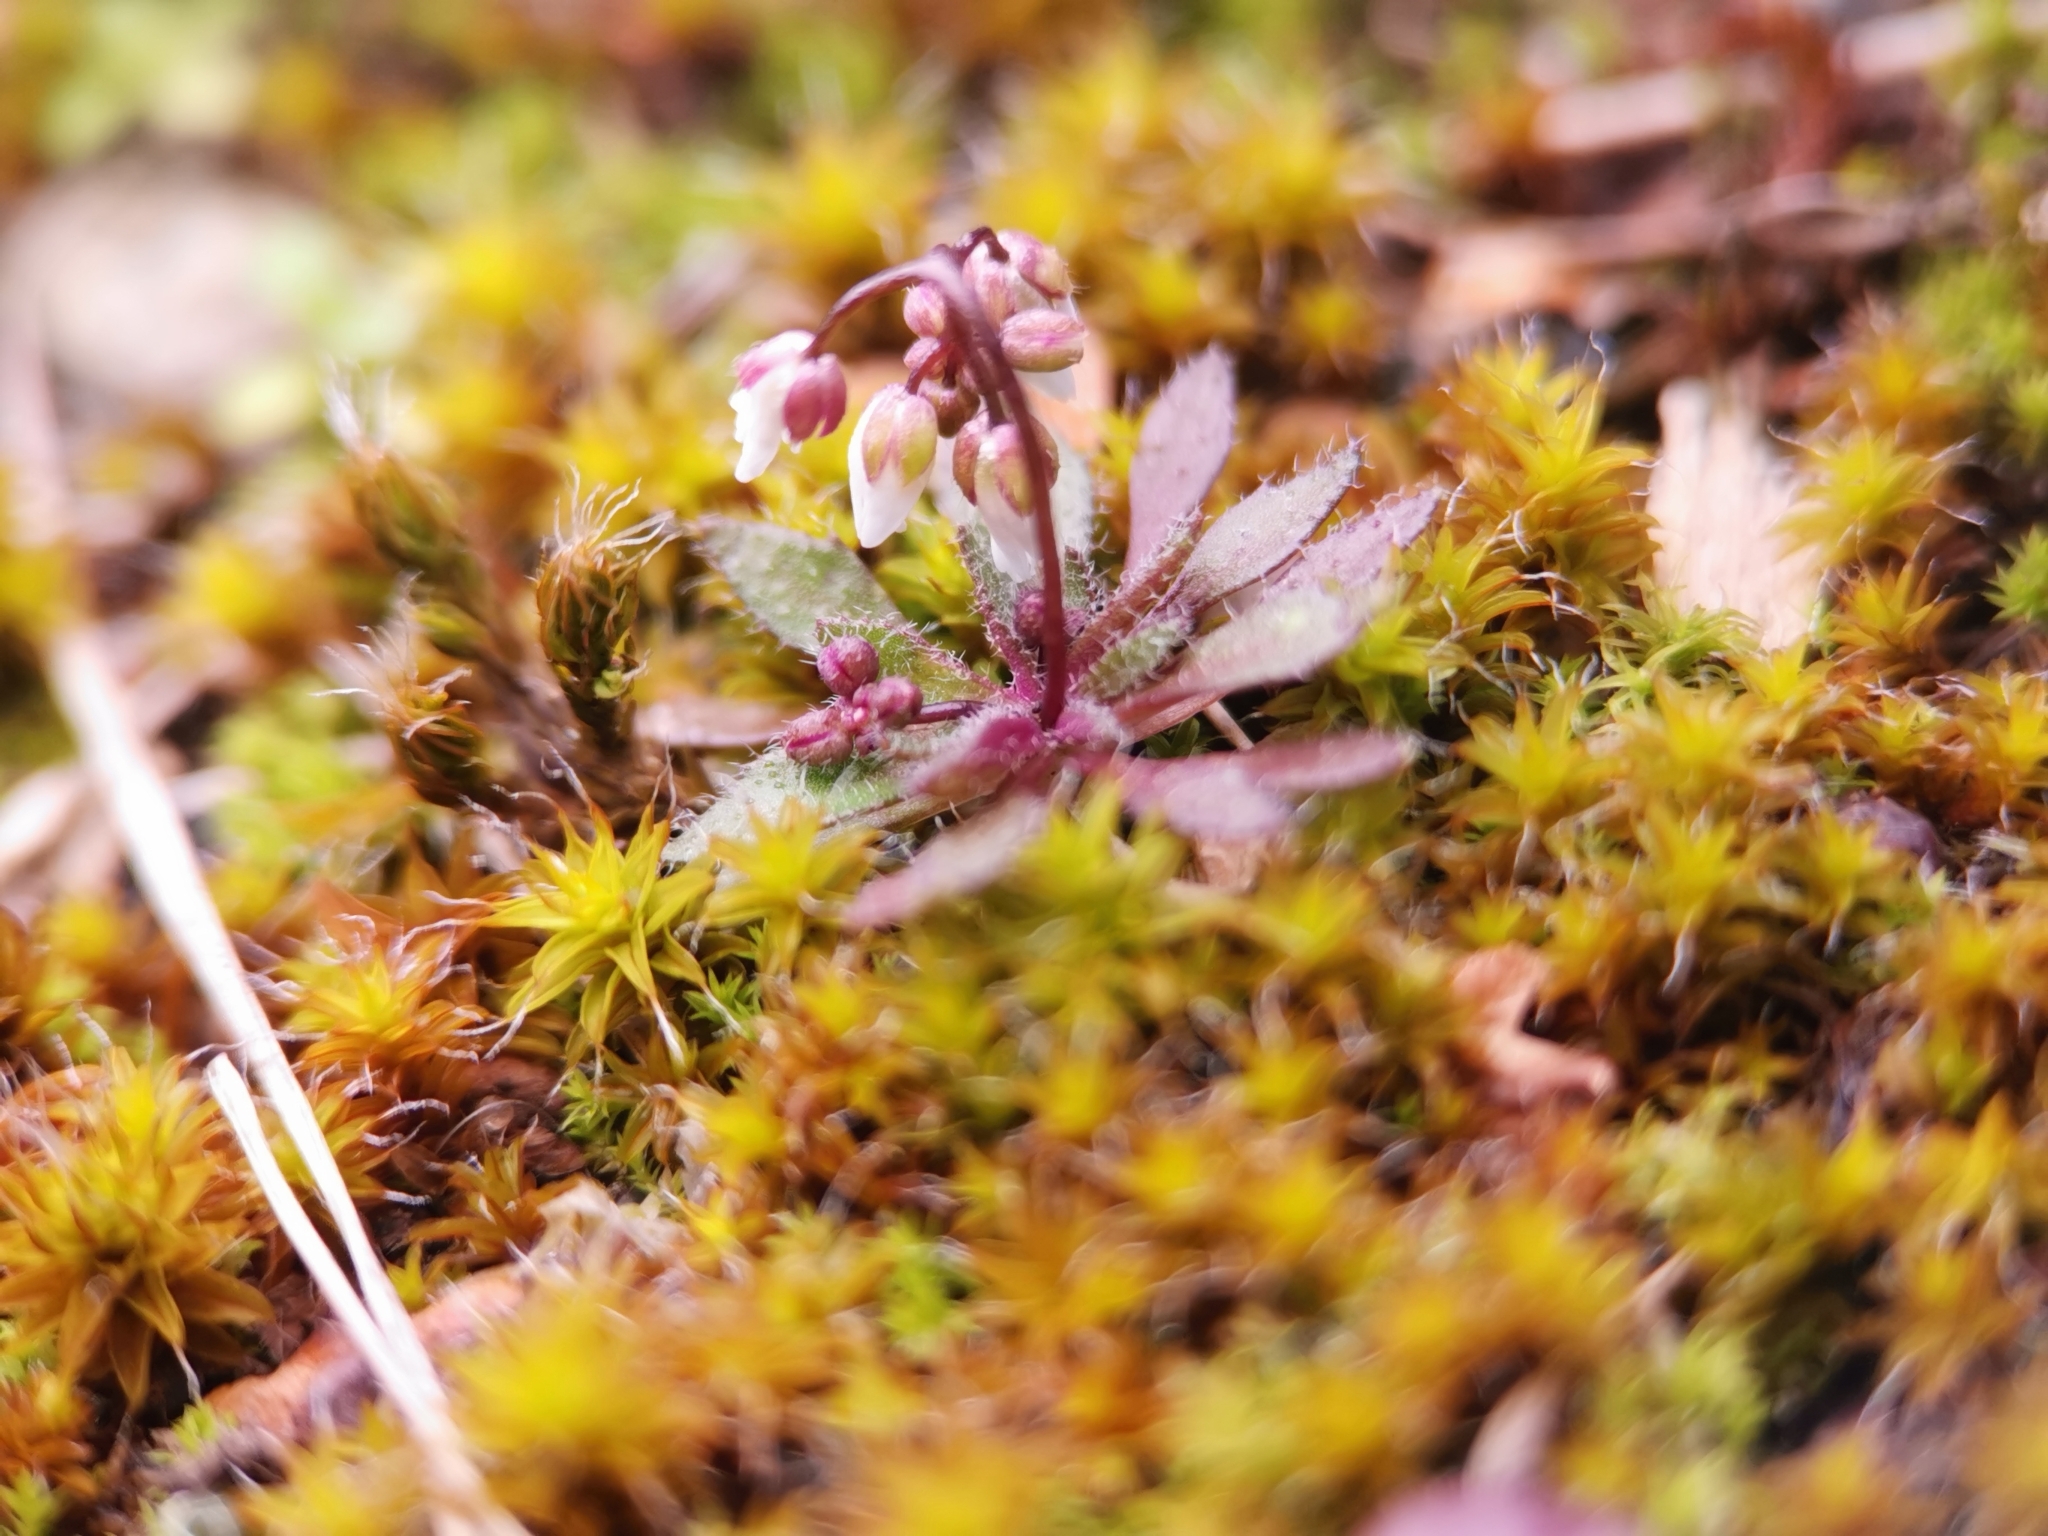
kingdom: Plantae
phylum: Tracheophyta
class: Magnoliopsida
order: Brassicales
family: Brassicaceae
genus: Draba
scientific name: Draba verna
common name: Spring draba
